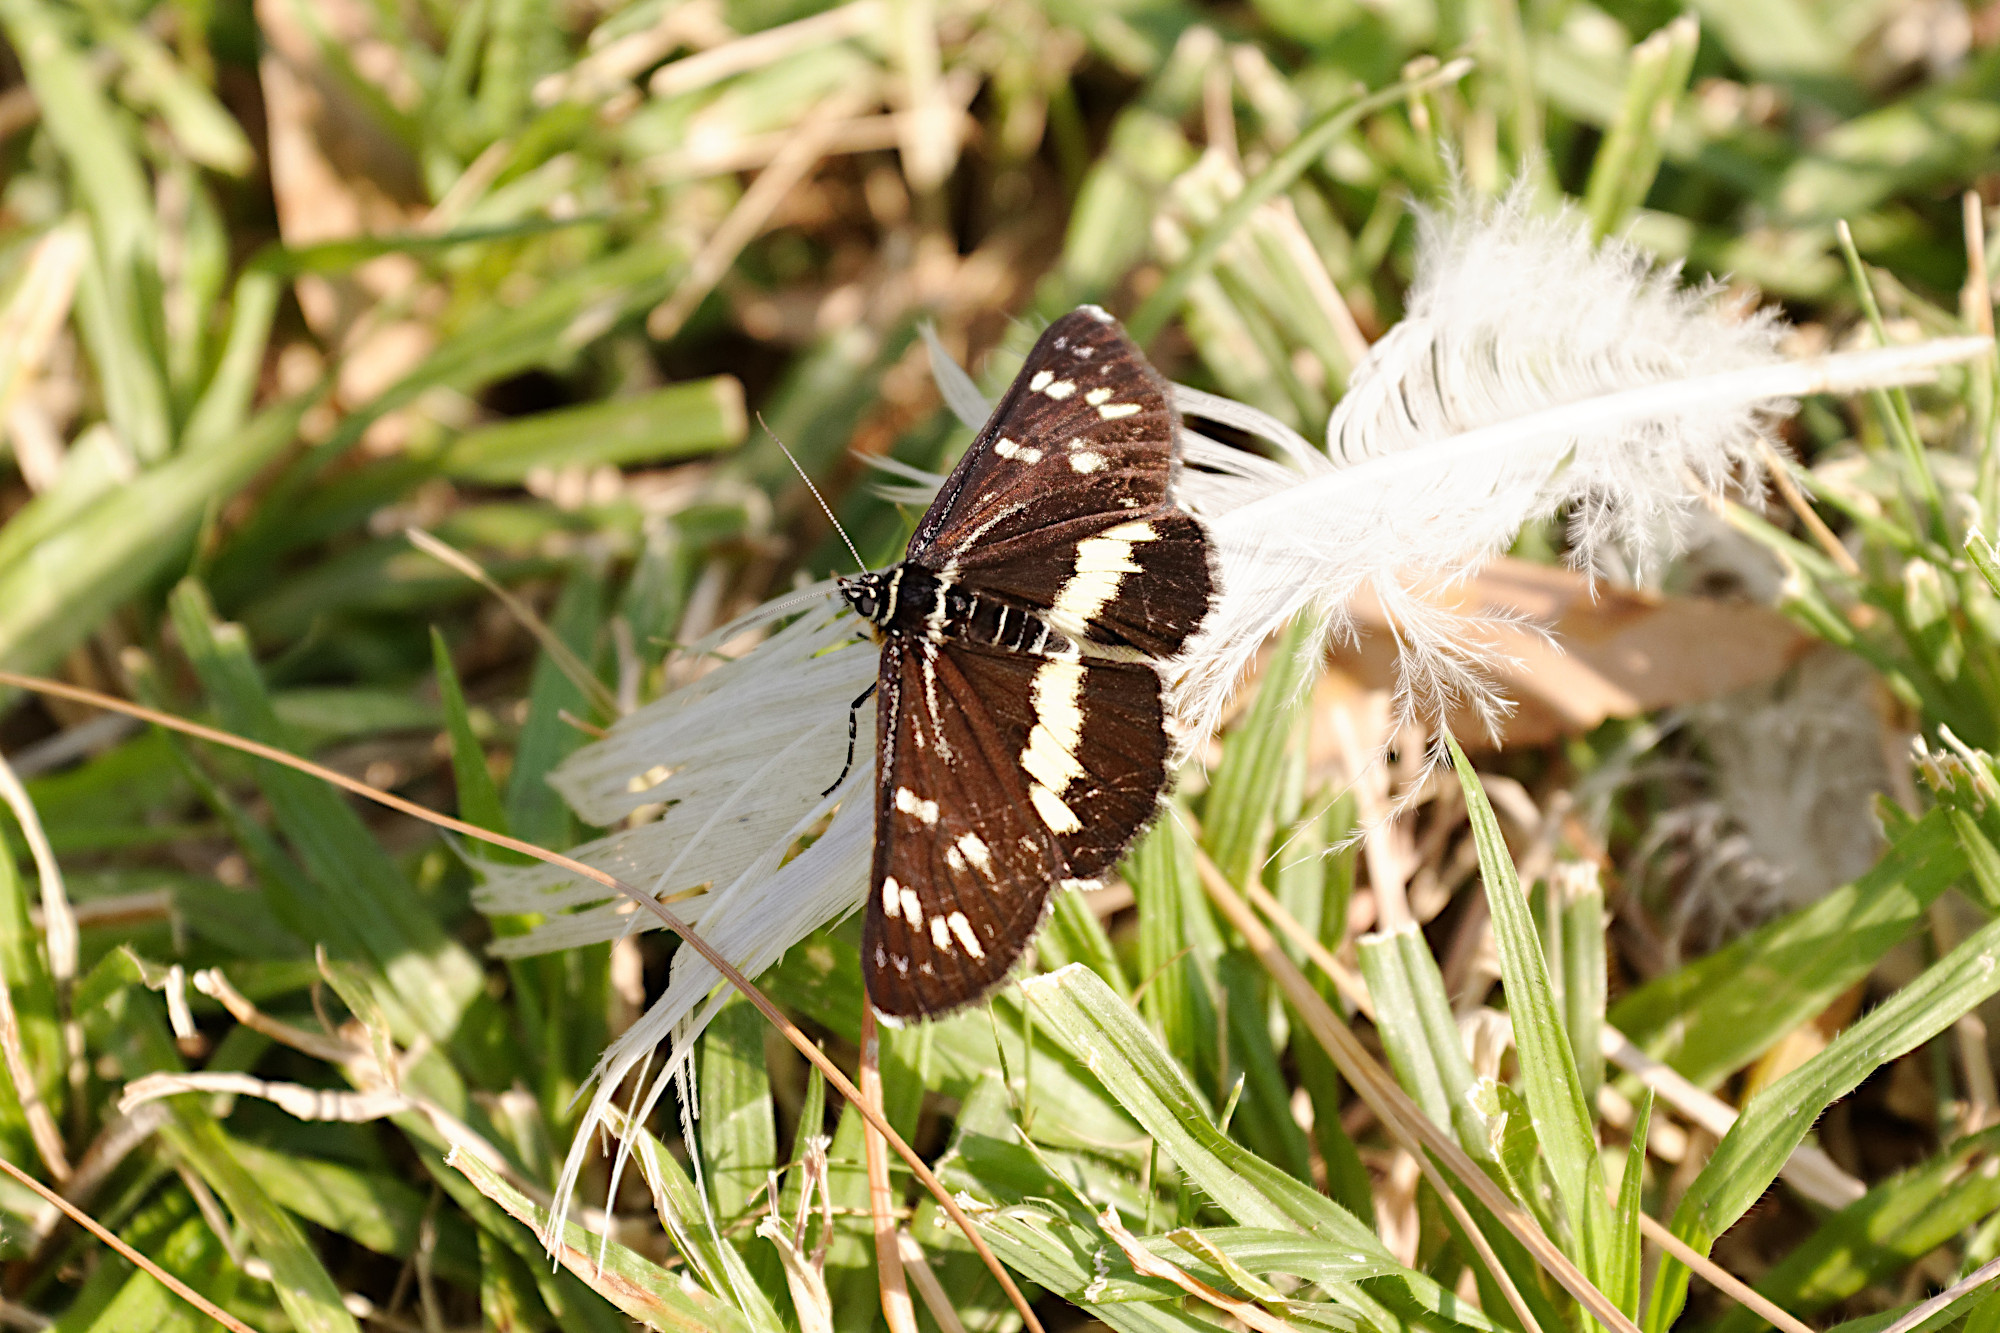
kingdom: Animalia
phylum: Arthropoda
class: Insecta
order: Lepidoptera
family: Noctuidae
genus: Cruria
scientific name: Cruria synopla
